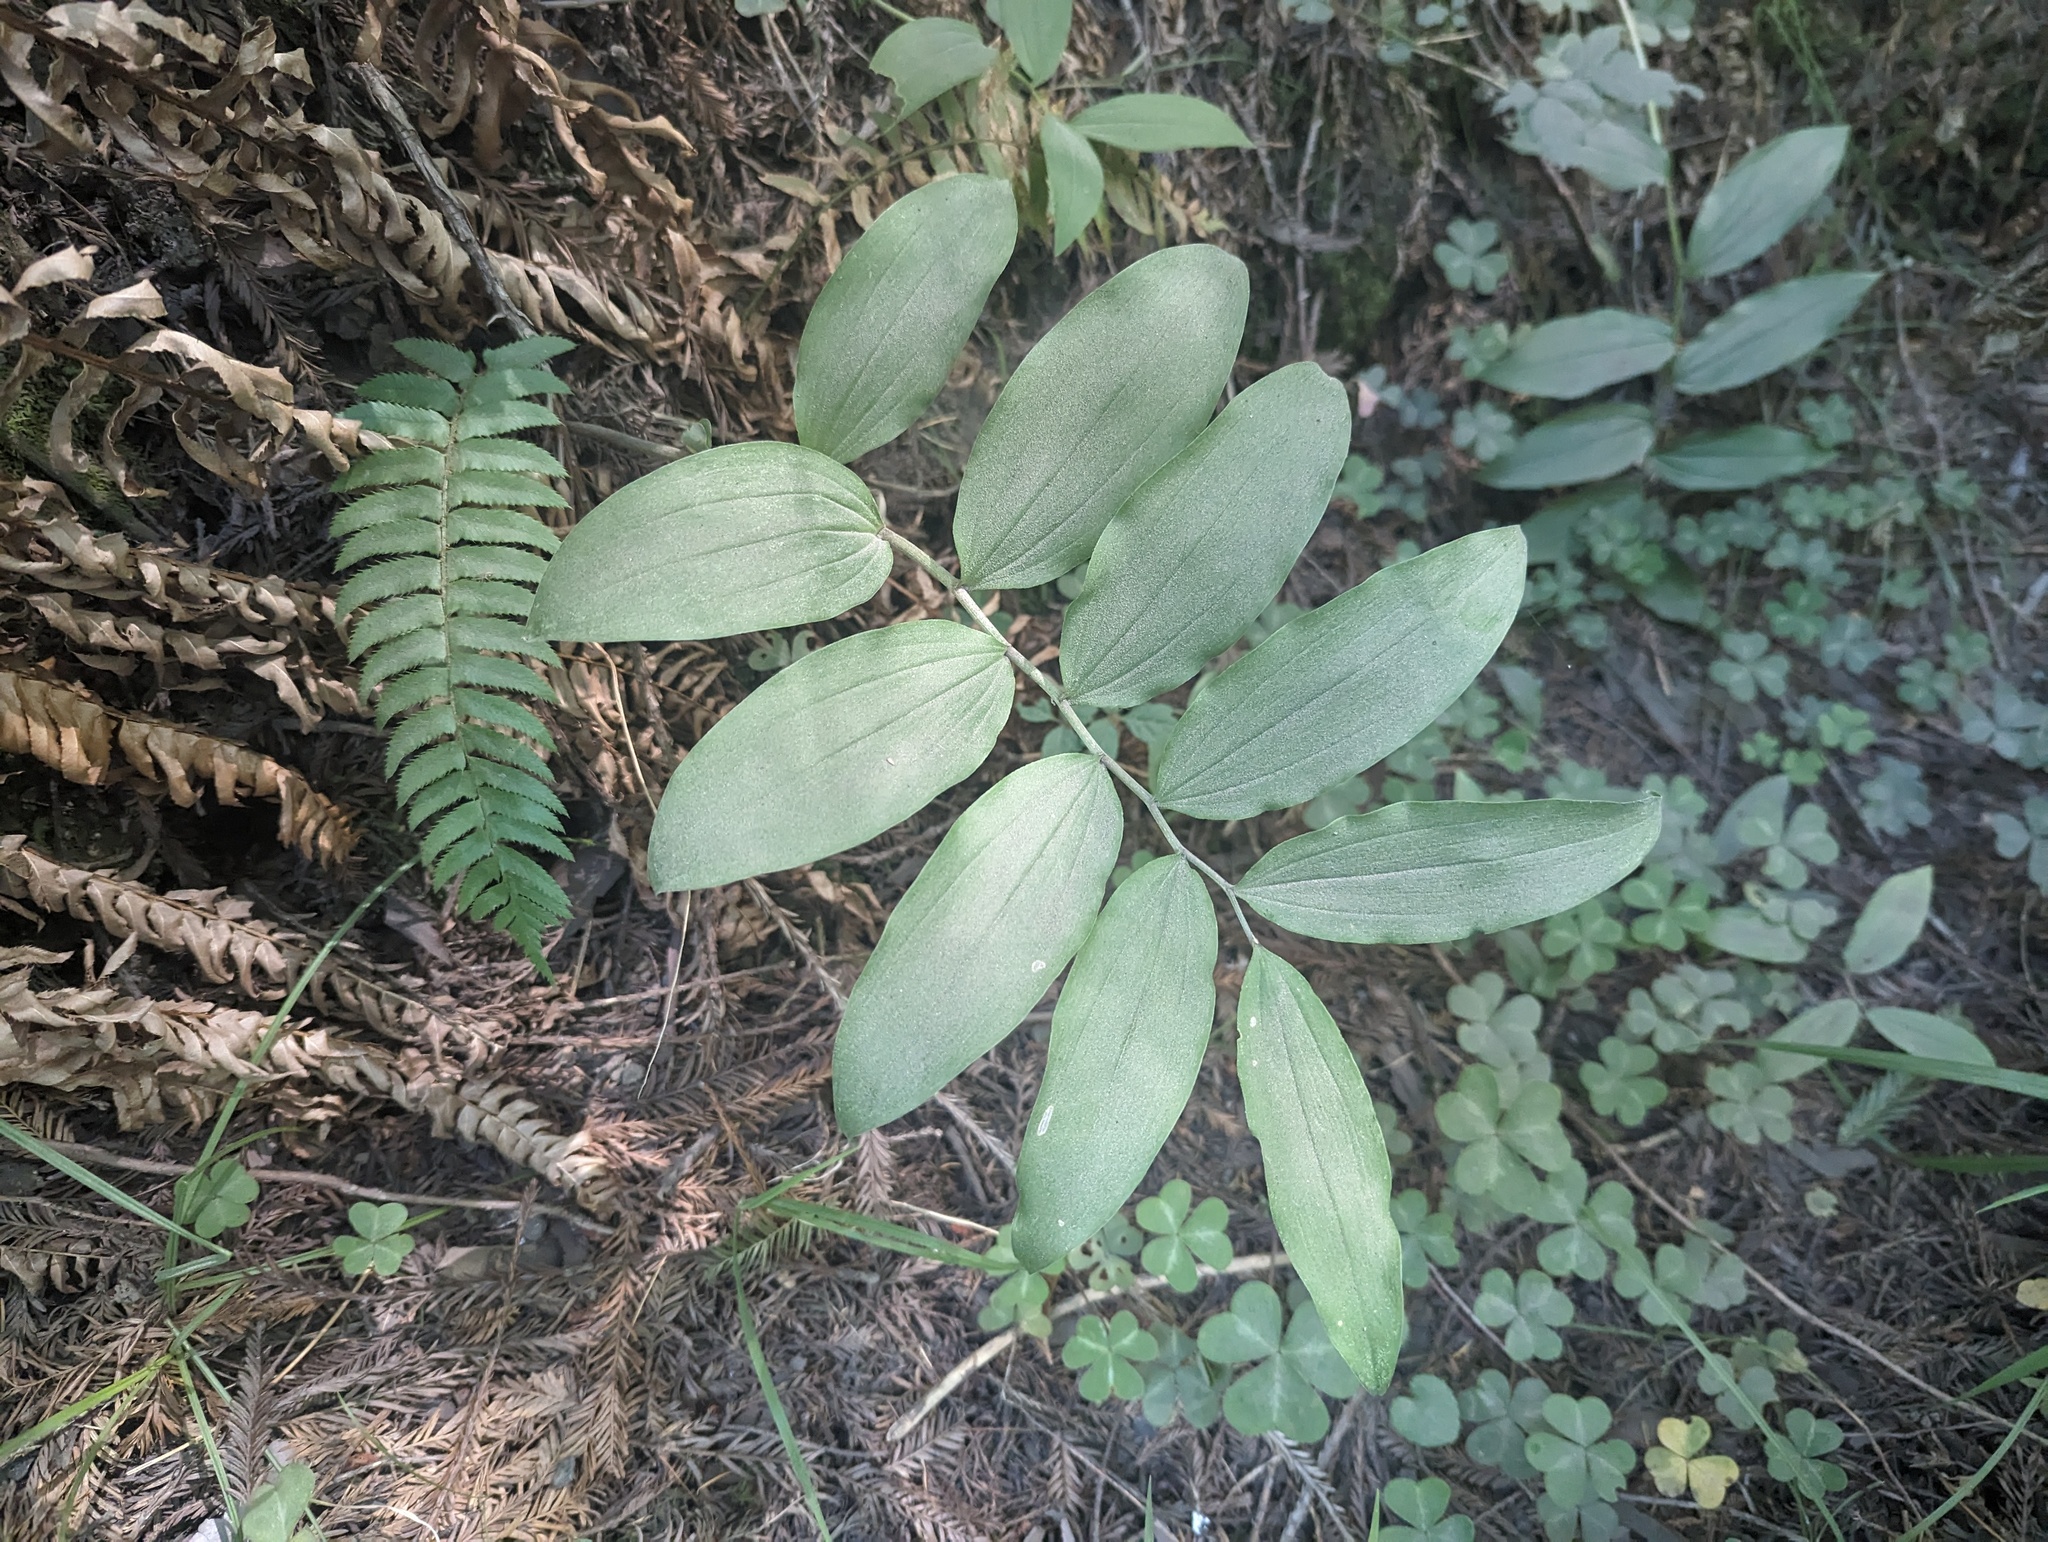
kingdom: Plantae
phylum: Tracheophyta
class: Liliopsida
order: Asparagales
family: Asparagaceae
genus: Maianthemum
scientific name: Maianthemum racemosum
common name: False spikenard
